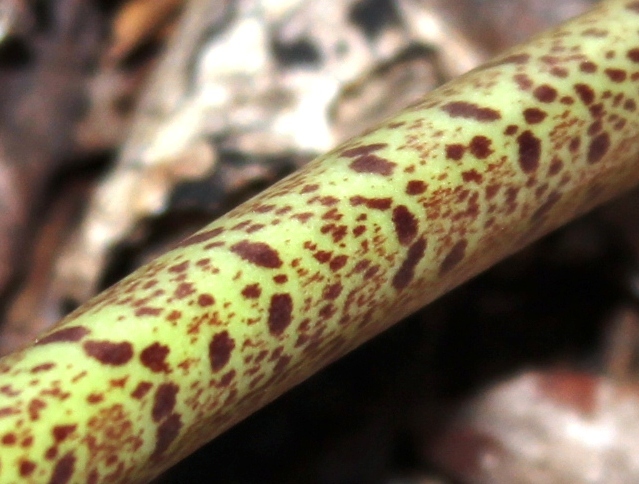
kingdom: Plantae
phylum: Tracheophyta
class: Liliopsida
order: Asparagales
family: Amaryllidaceae
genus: Haemanthus
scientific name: Haemanthus coccineus
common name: Cape-tulip
